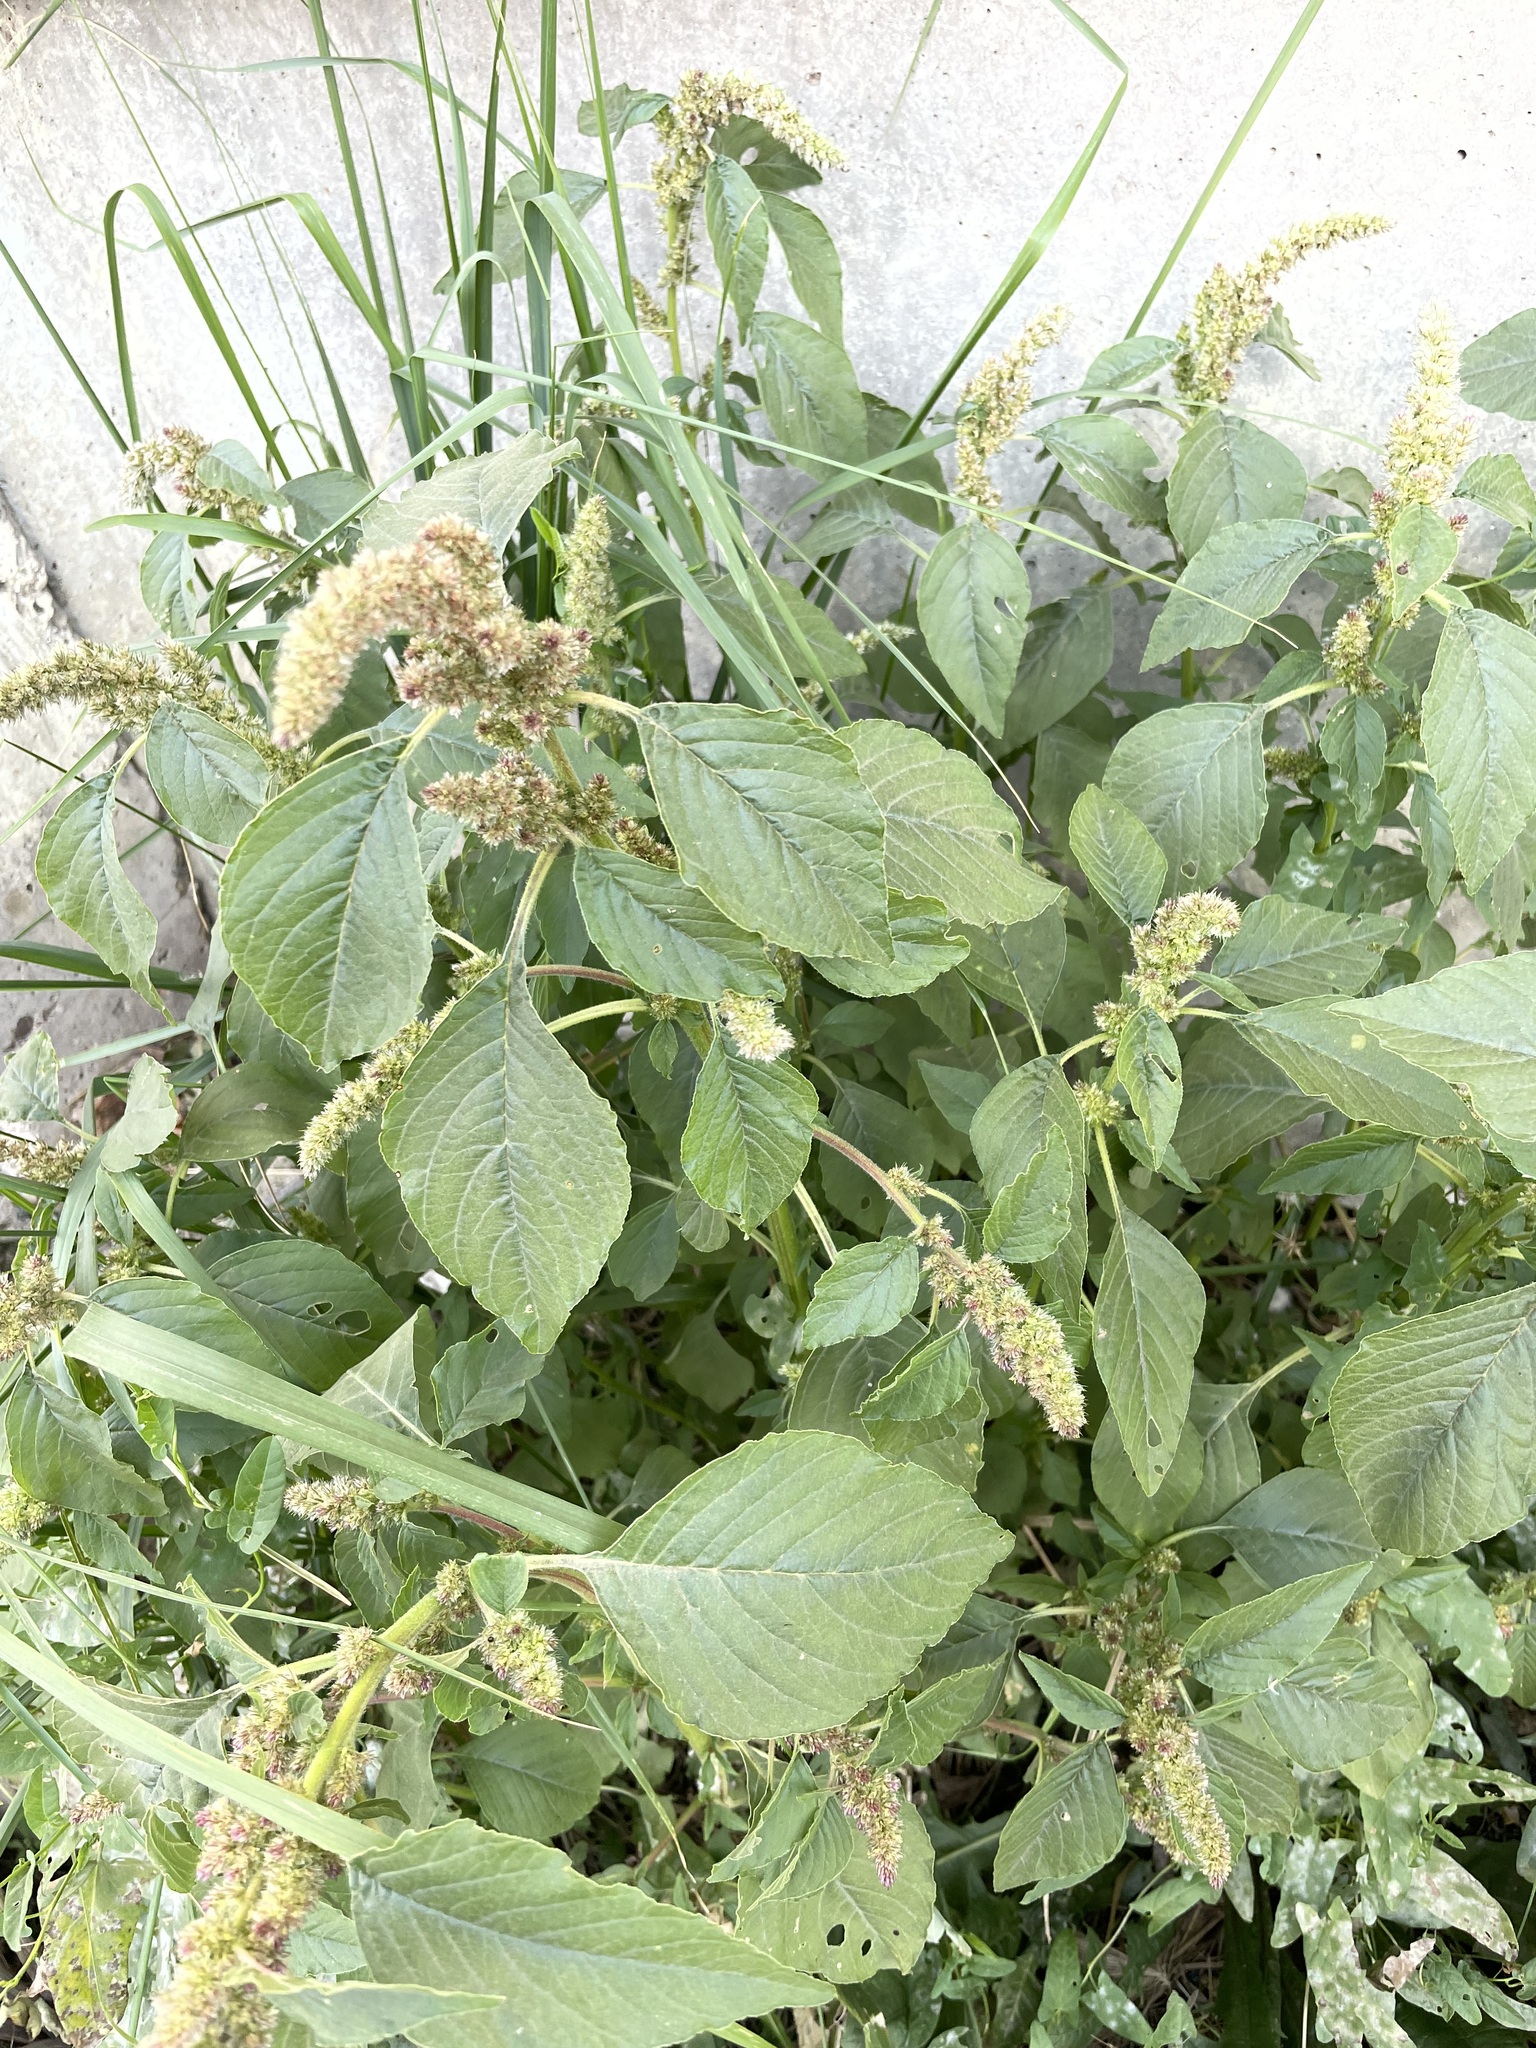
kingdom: Plantae
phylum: Tracheophyta
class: Magnoliopsida
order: Caryophyllales
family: Amaranthaceae
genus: Amaranthus
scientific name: Amaranthus retroflexus
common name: Redroot amaranth
